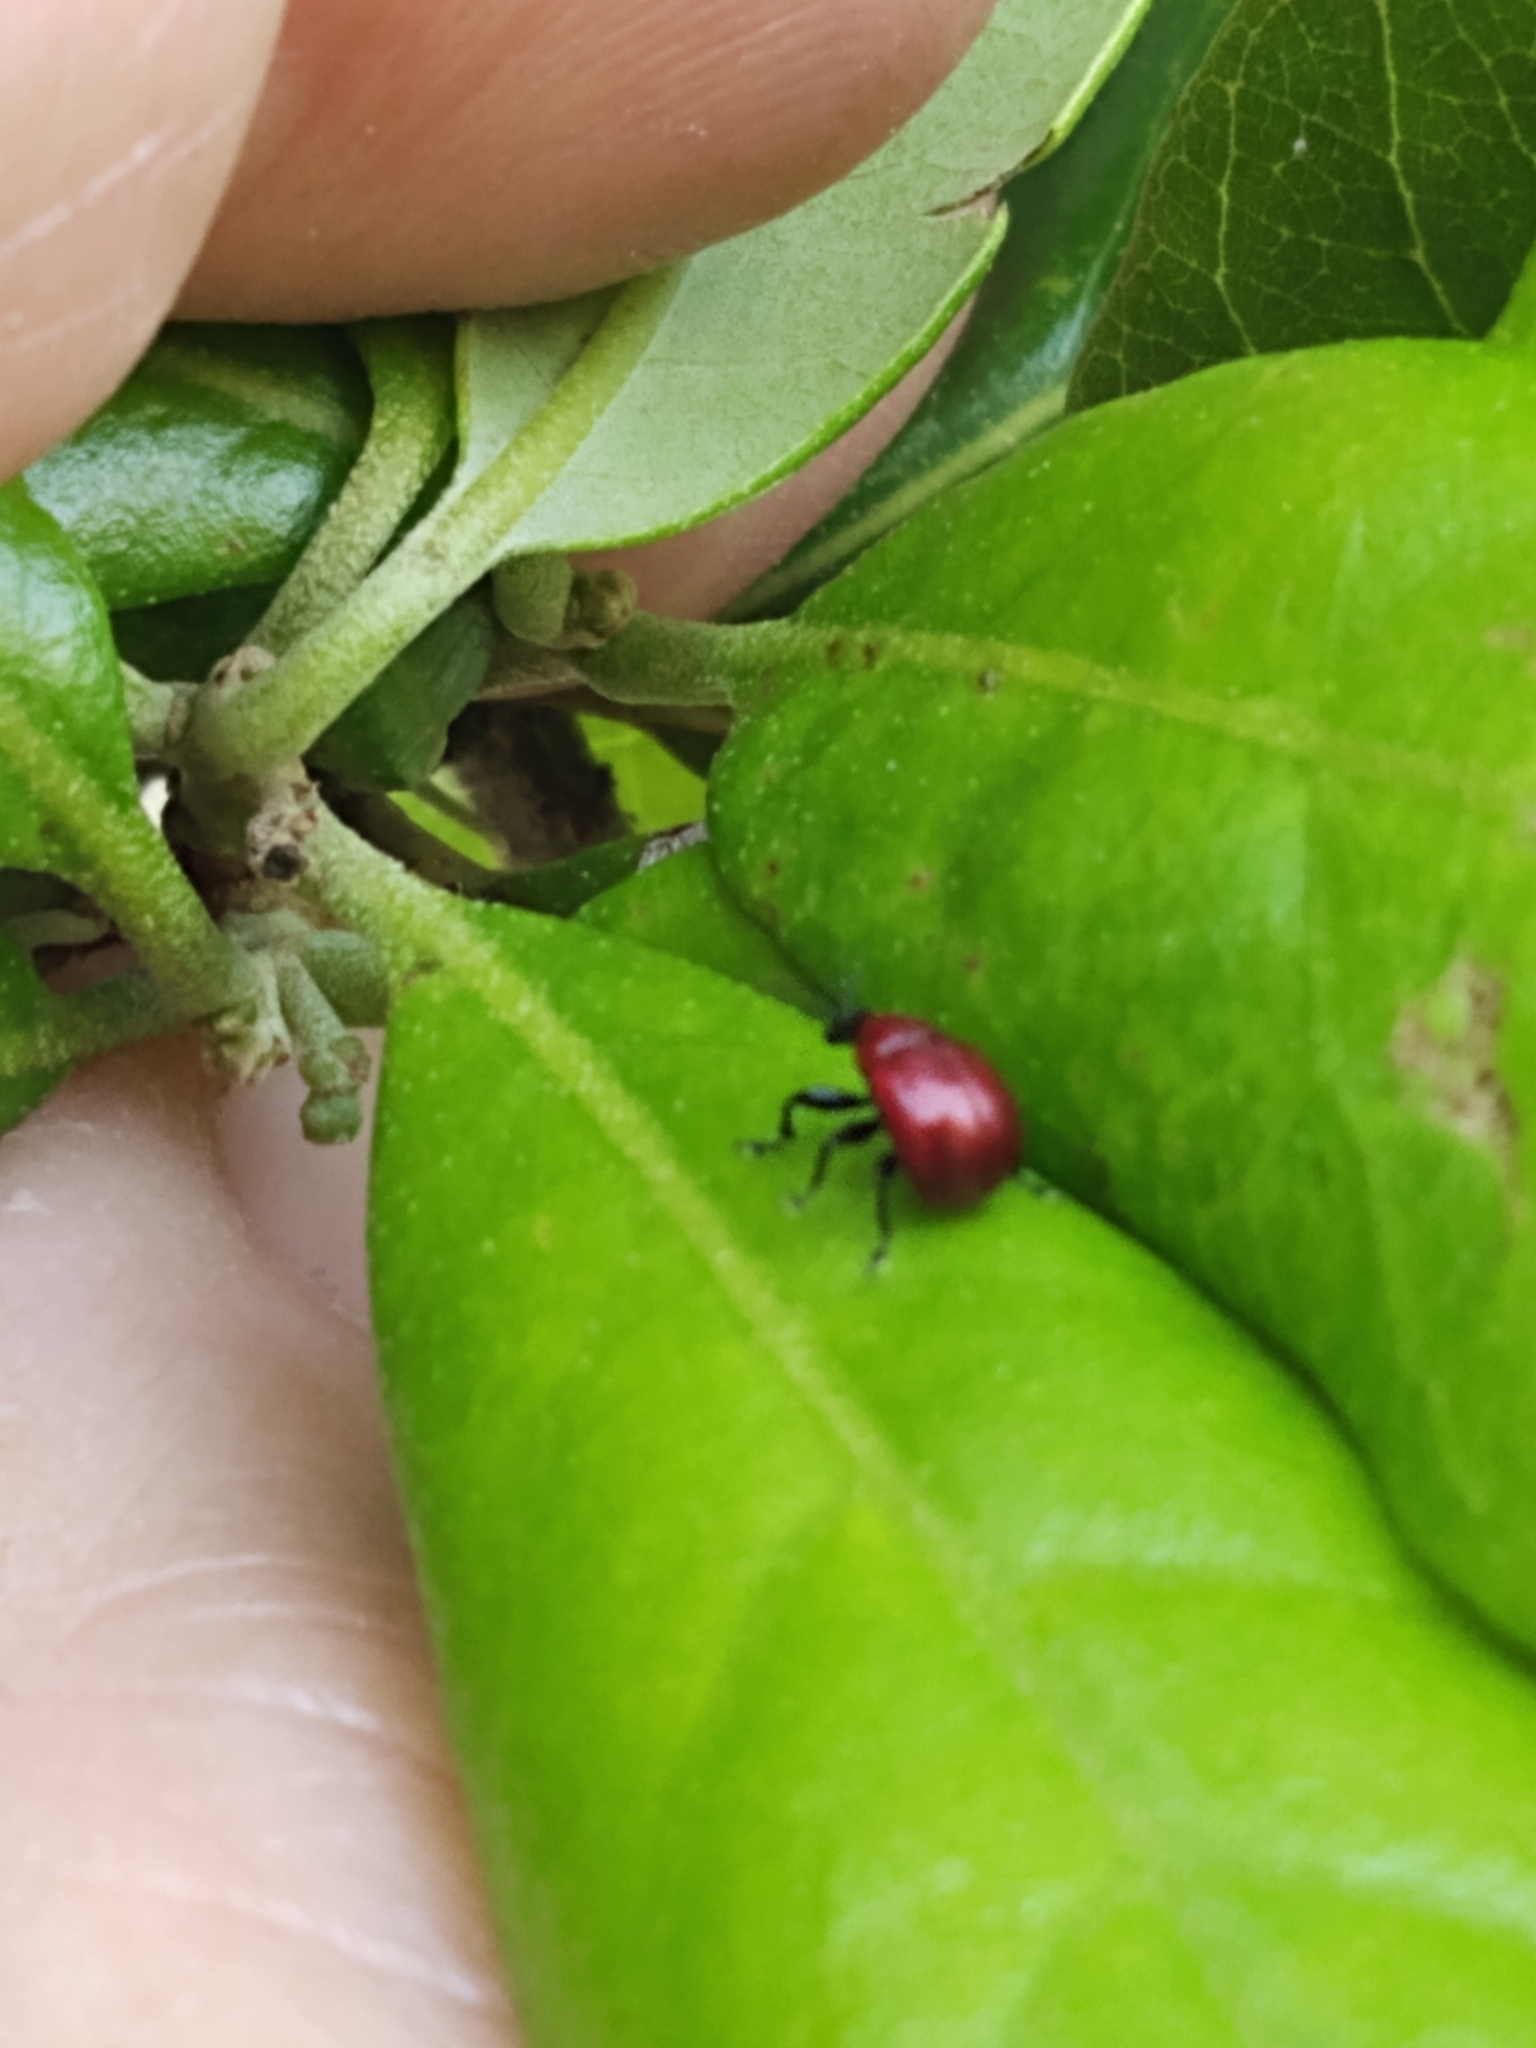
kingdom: Animalia
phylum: Arthropoda
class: Insecta
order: Coleoptera
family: Attelabidae
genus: Homoeolabus
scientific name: Homoeolabus analis
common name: Oak leaf rolling weevil
